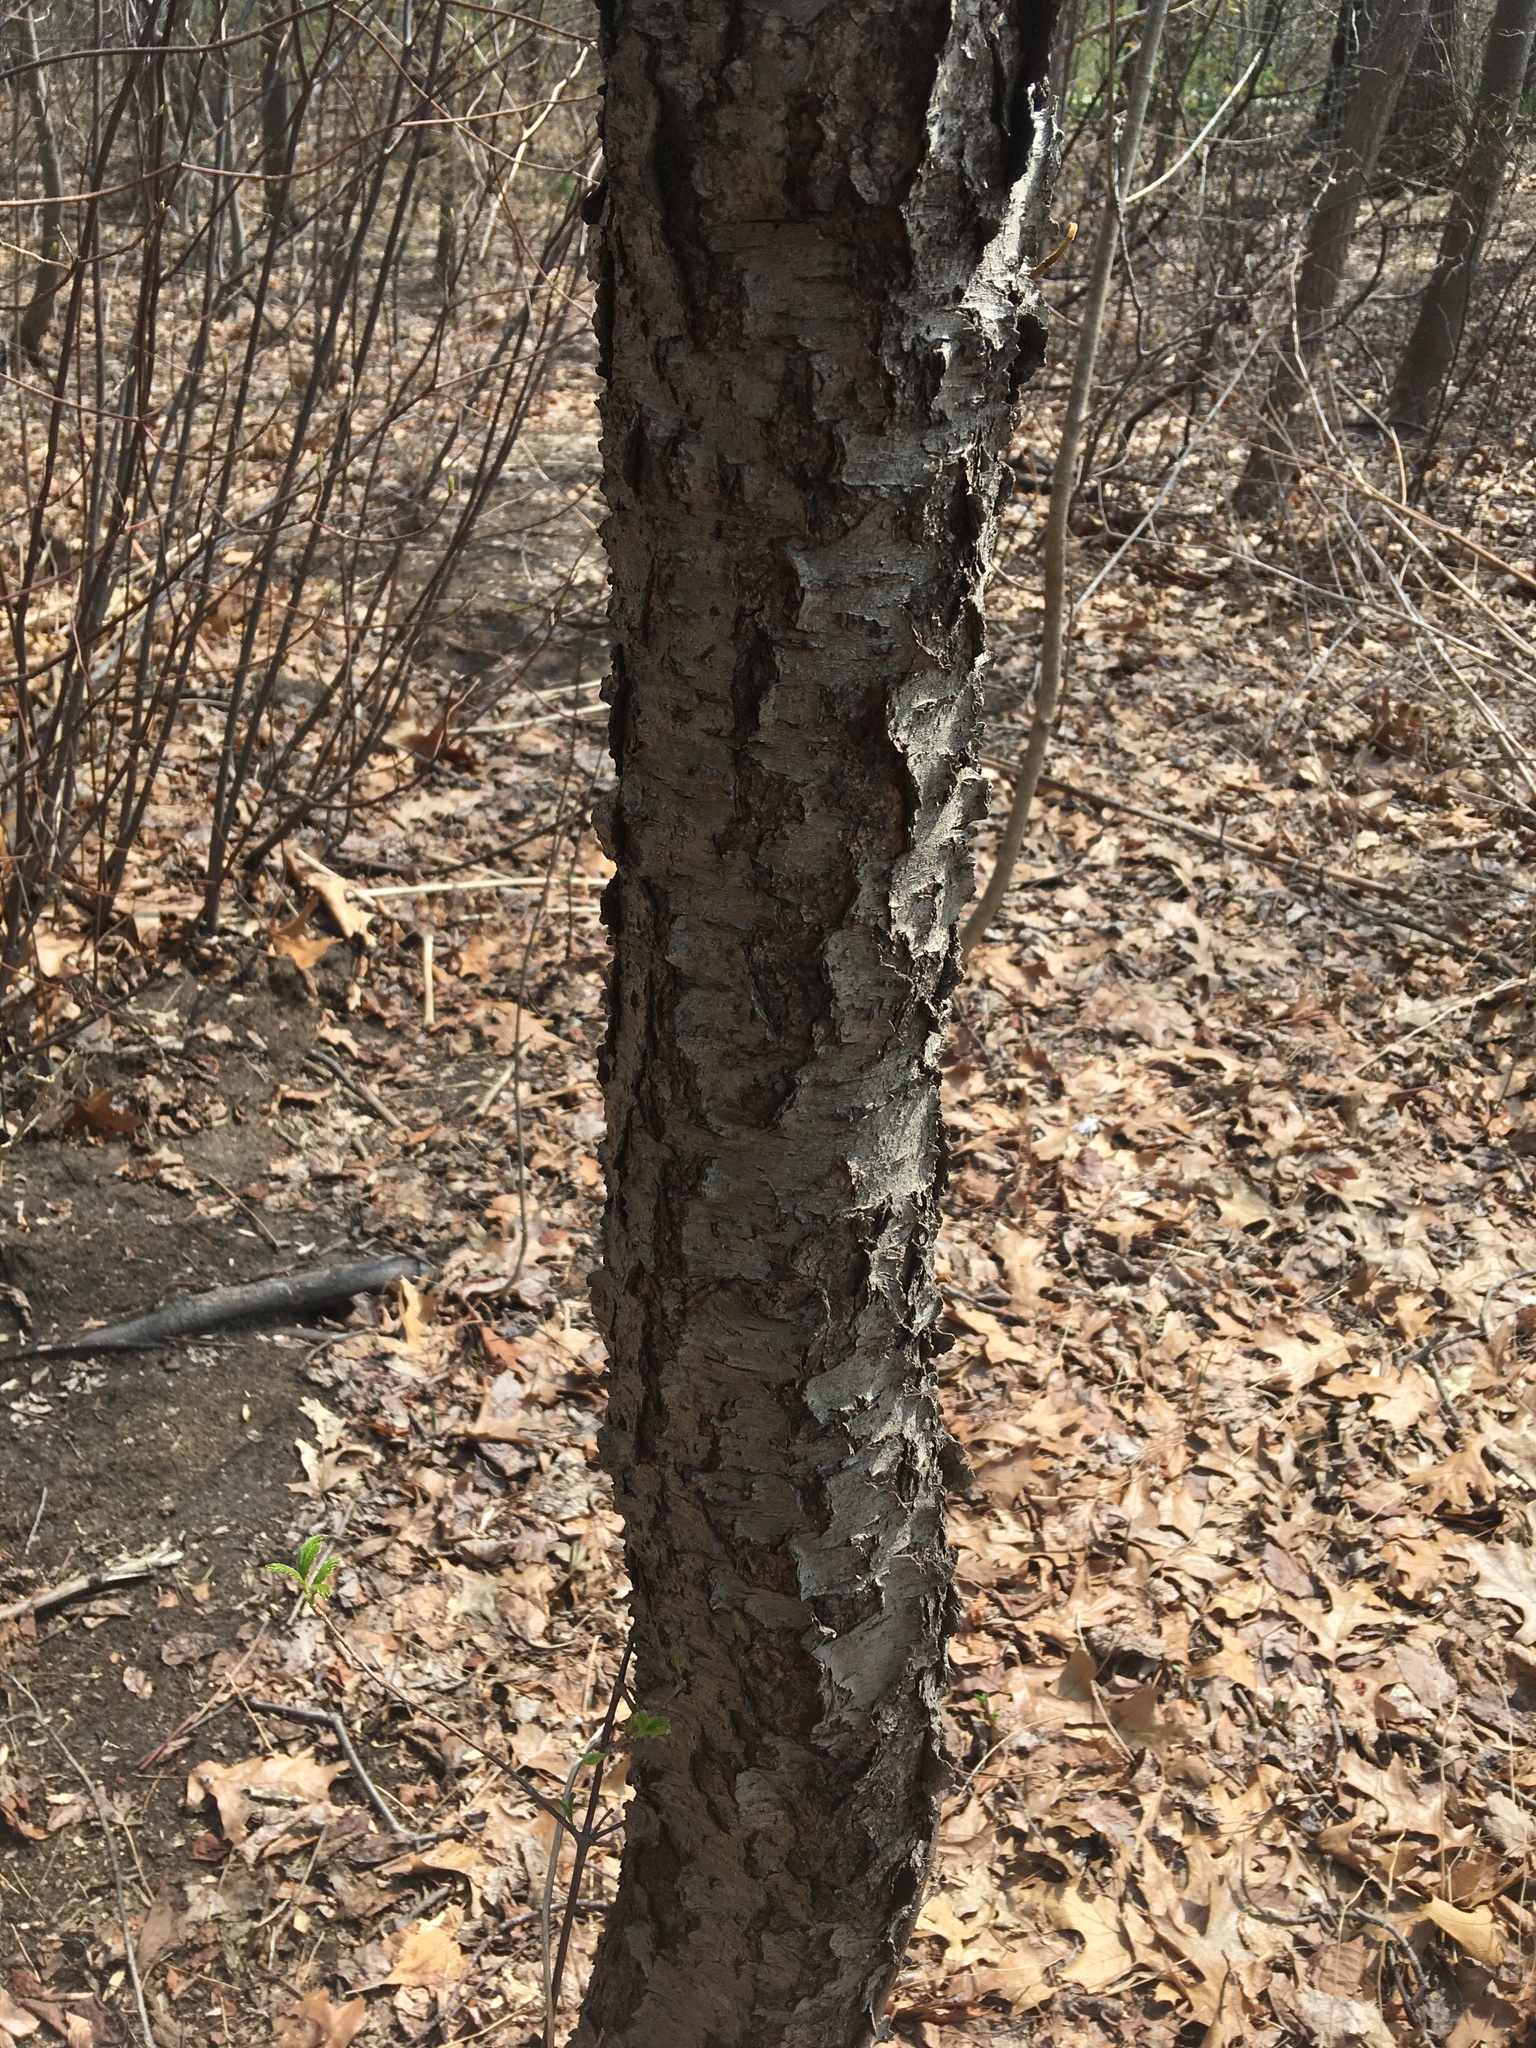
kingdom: Plantae
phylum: Tracheophyta
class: Magnoliopsida
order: Rosales
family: Rosaceae
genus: Prunus
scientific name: Prunus serotina
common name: Black cherry
